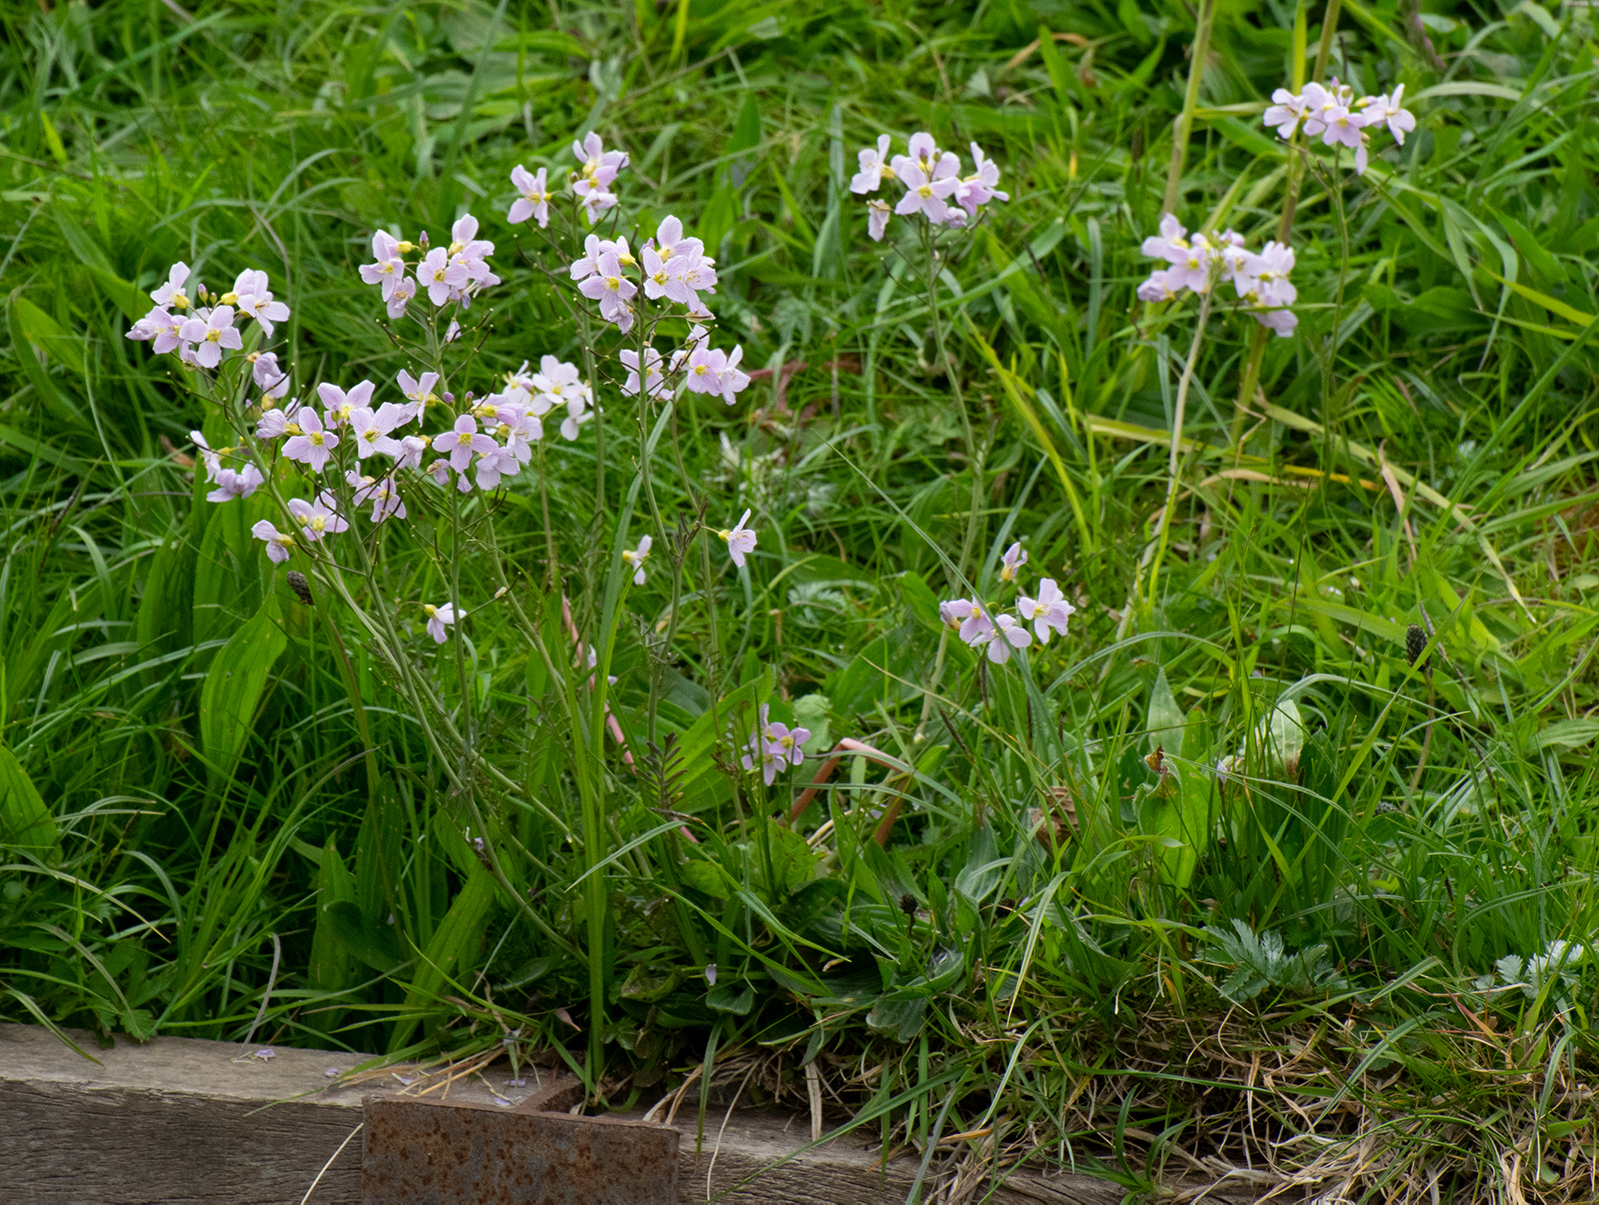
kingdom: Plantae
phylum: Tracheophyta
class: Magnoliopsida
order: Brassicales
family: Brassicaceae
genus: Cardamine
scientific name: Cardamine pratensis
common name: Cuckoo flower
